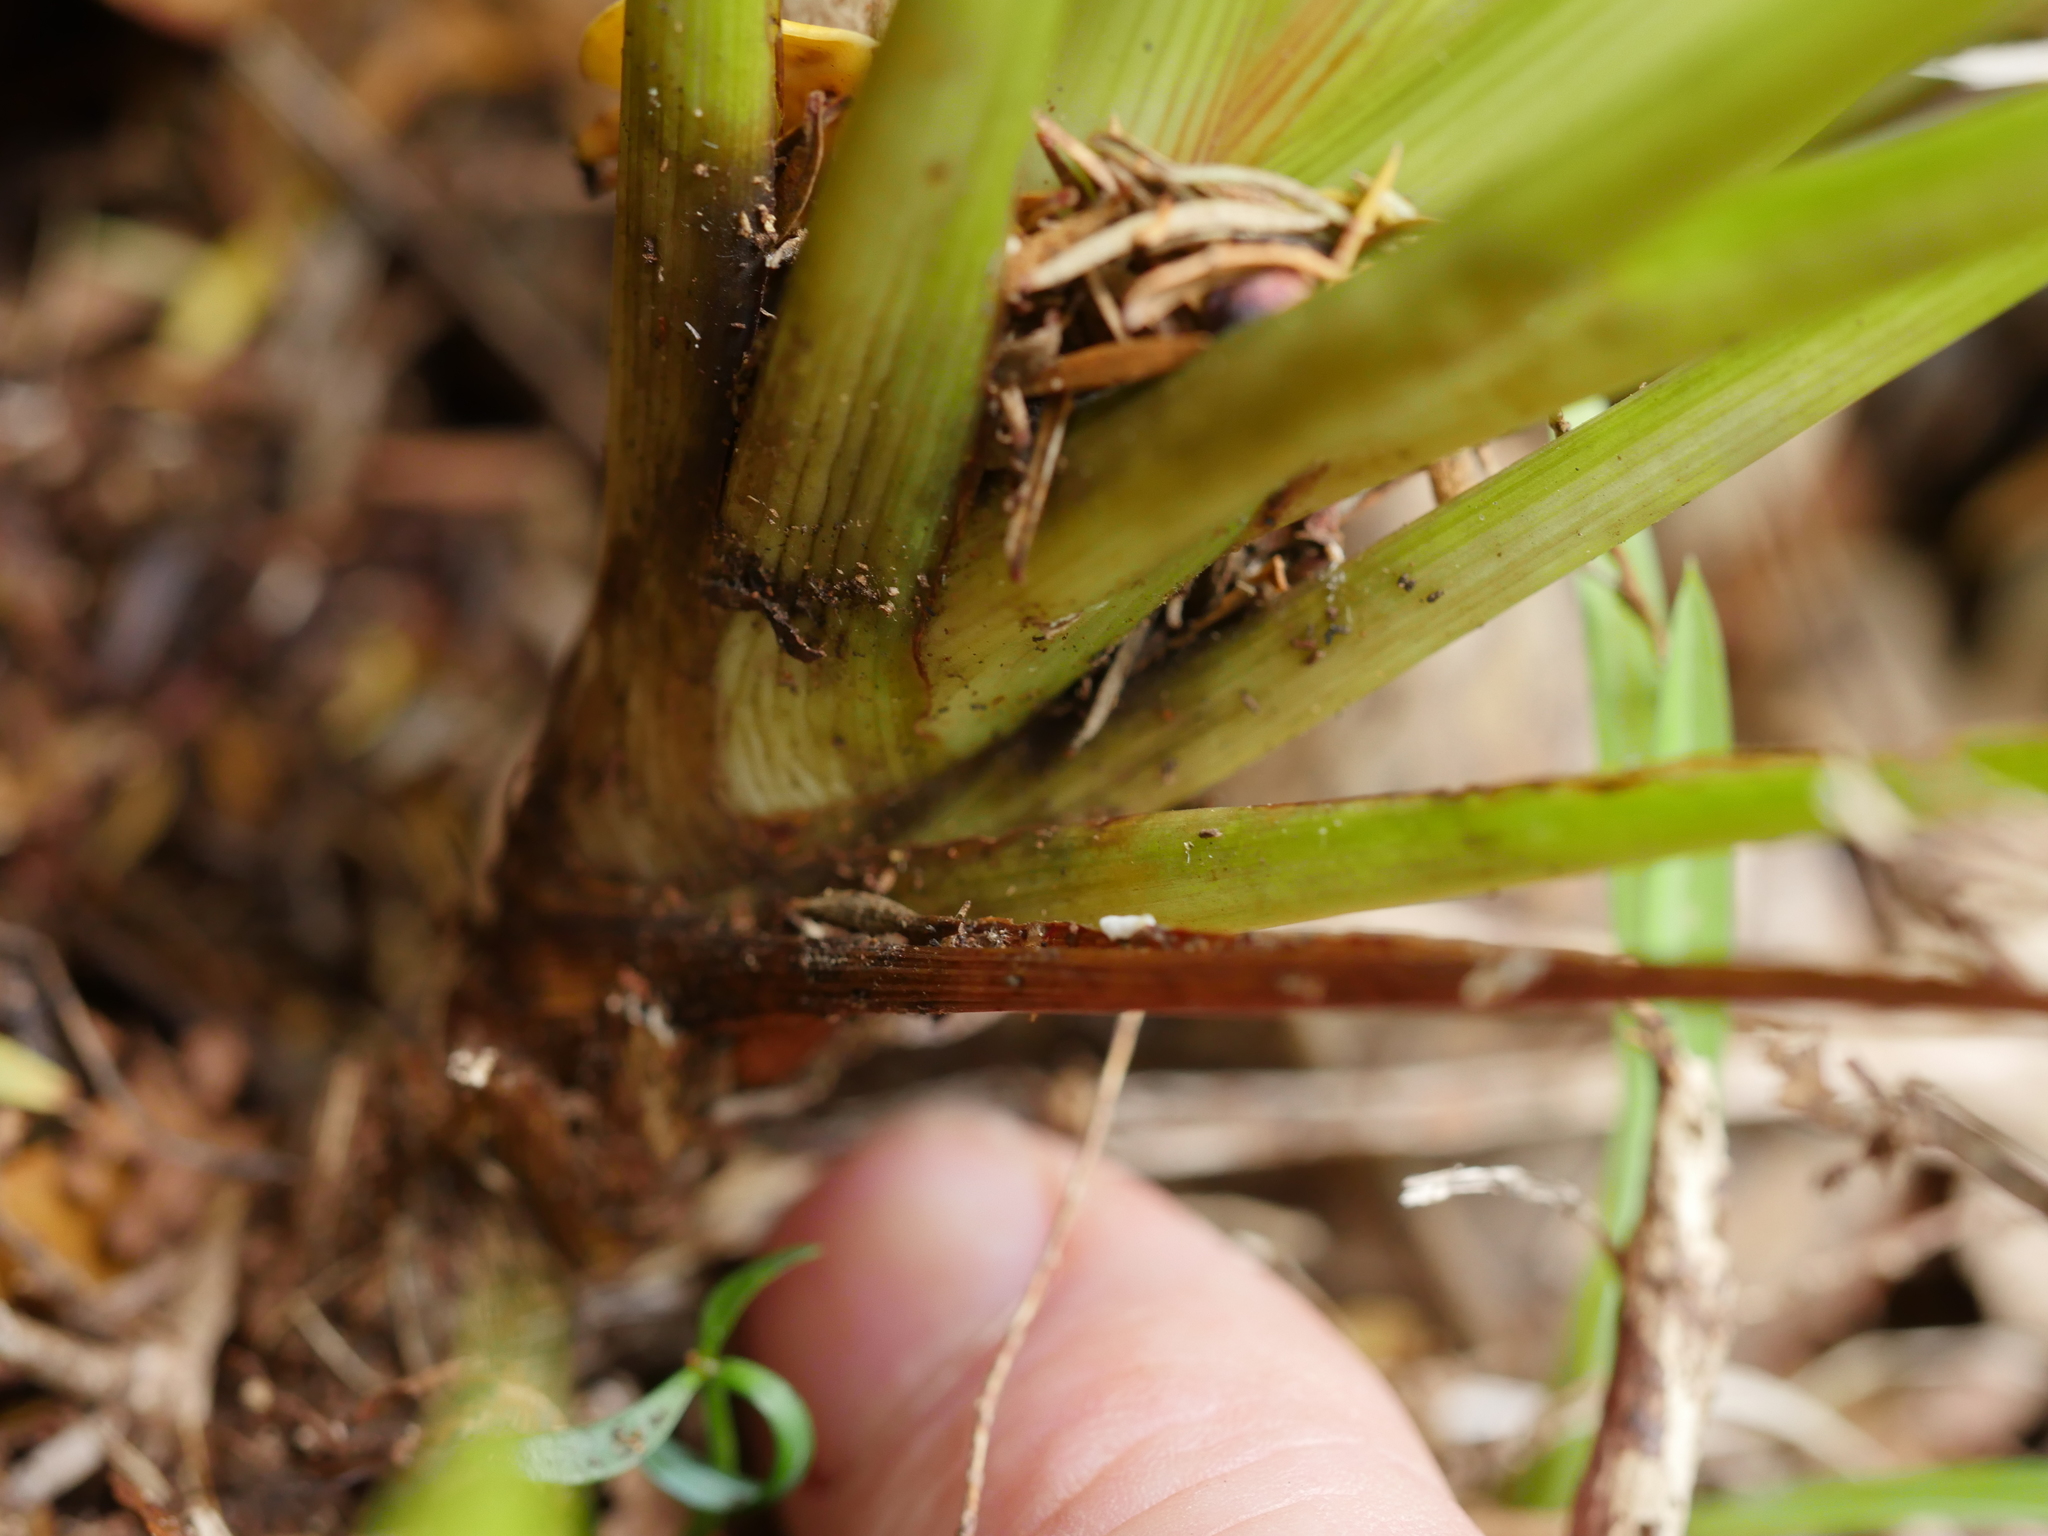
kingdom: Plantae
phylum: Tracheophyta
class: Liliopsida
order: Asparagales
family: Asparagaceae
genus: Cordyline
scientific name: Cordyline pumilio
